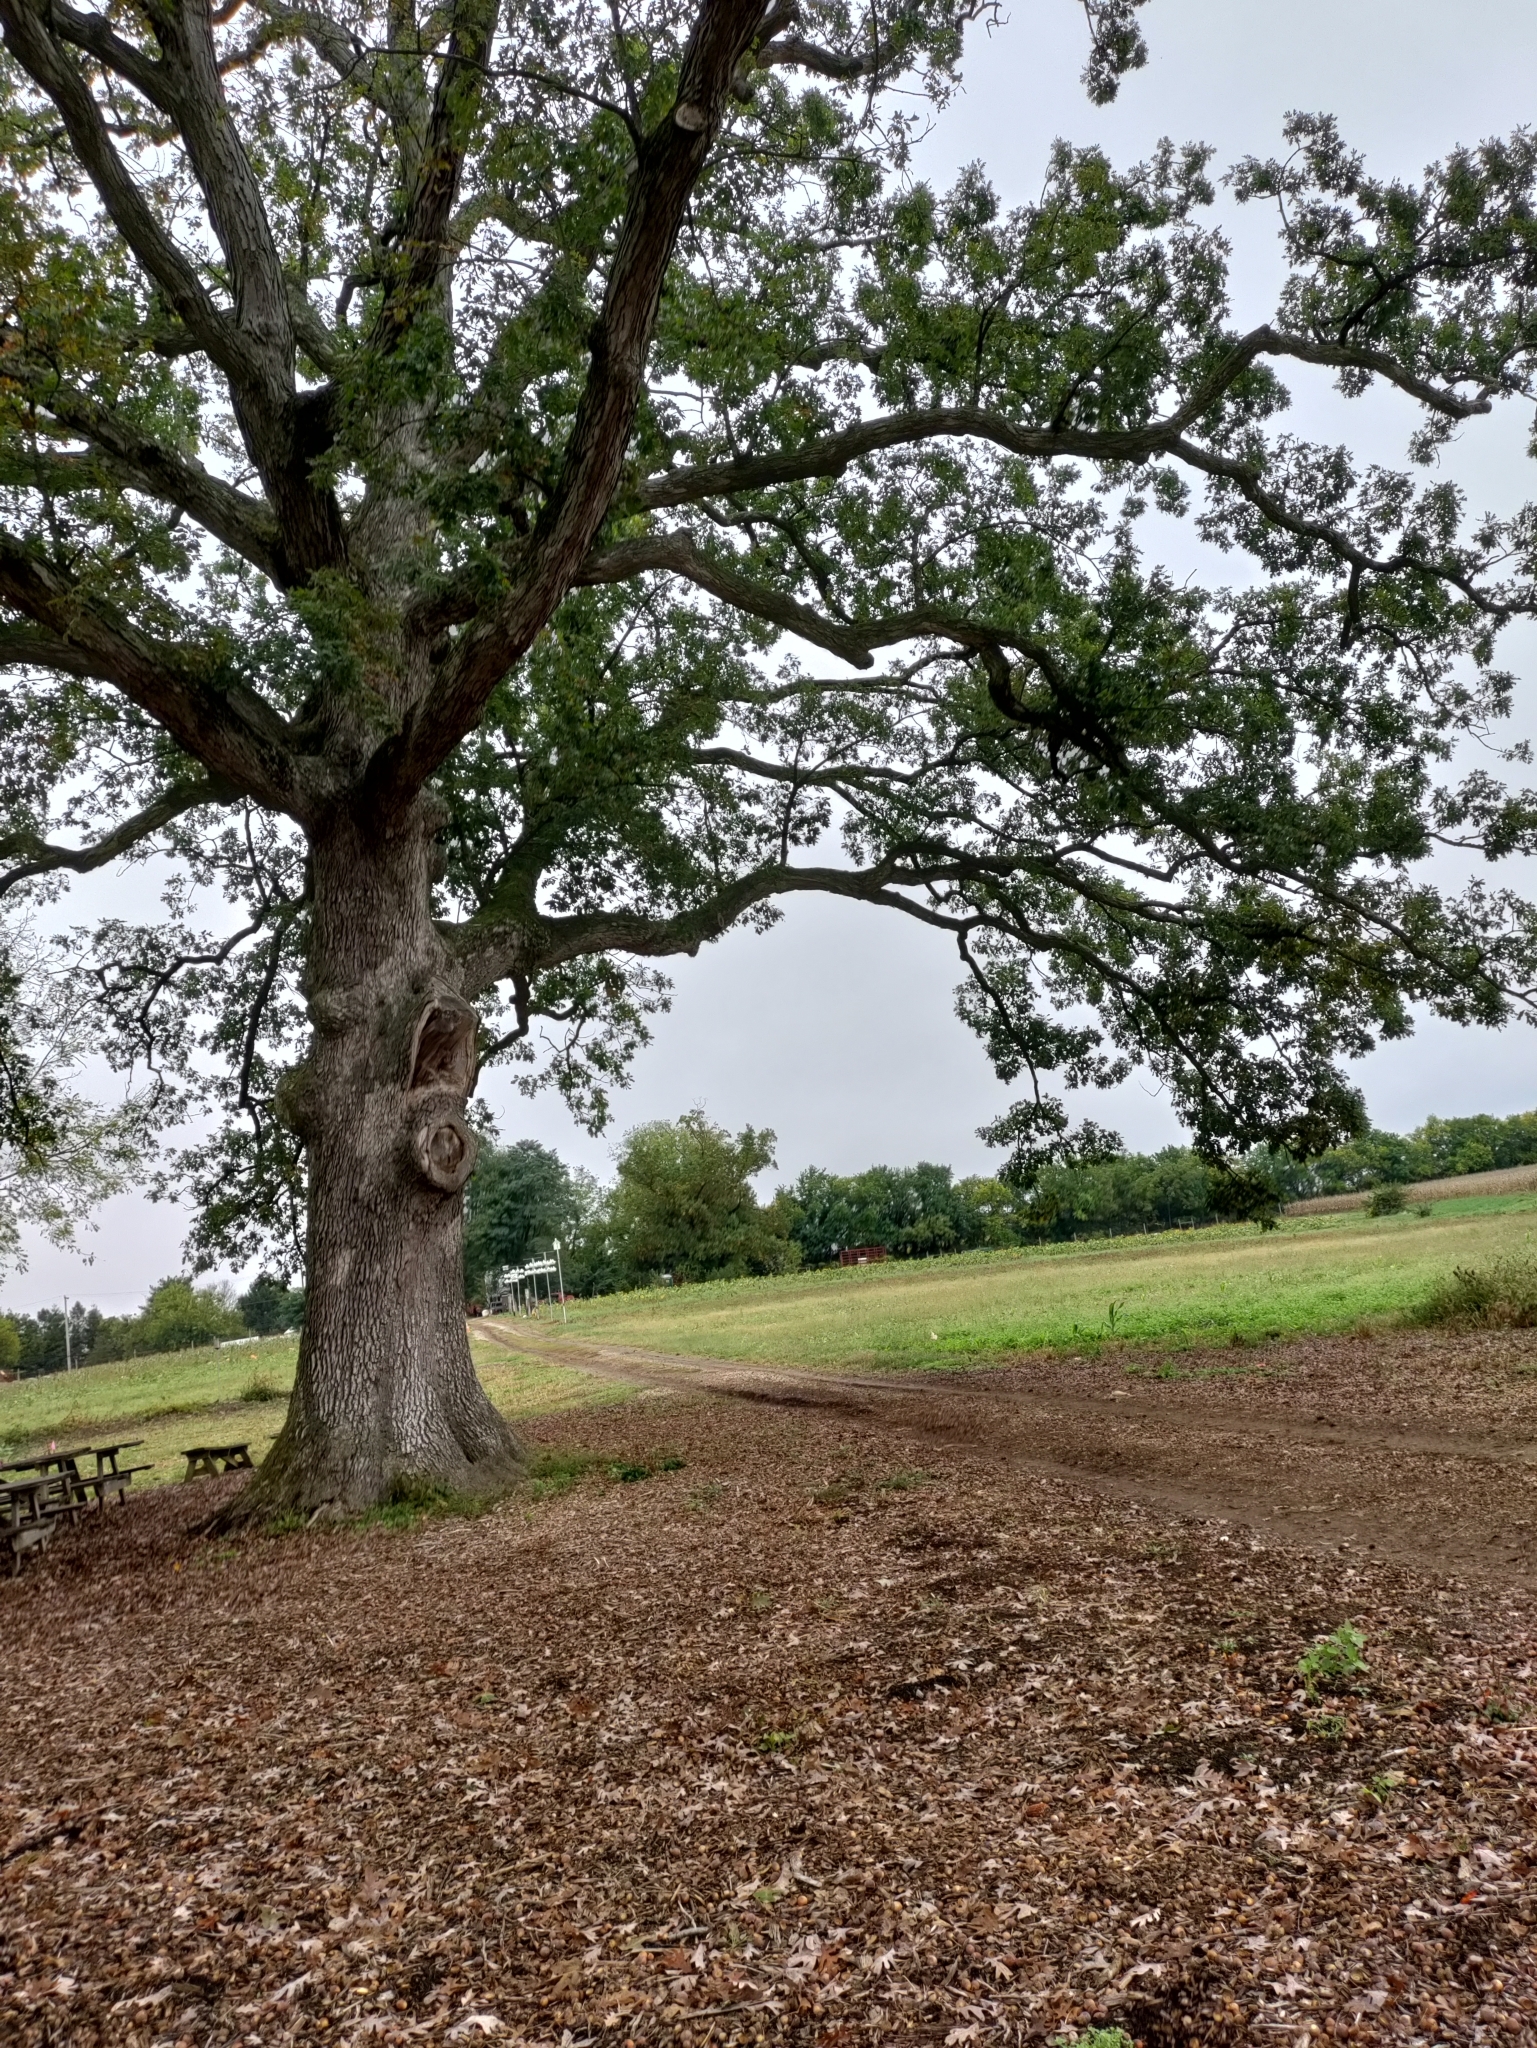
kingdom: Plantae
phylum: Tracheophyta
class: Magnoliopsida
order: Fagales
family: Fagaceae
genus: Quercus
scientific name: Quercus alba
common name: White oak
